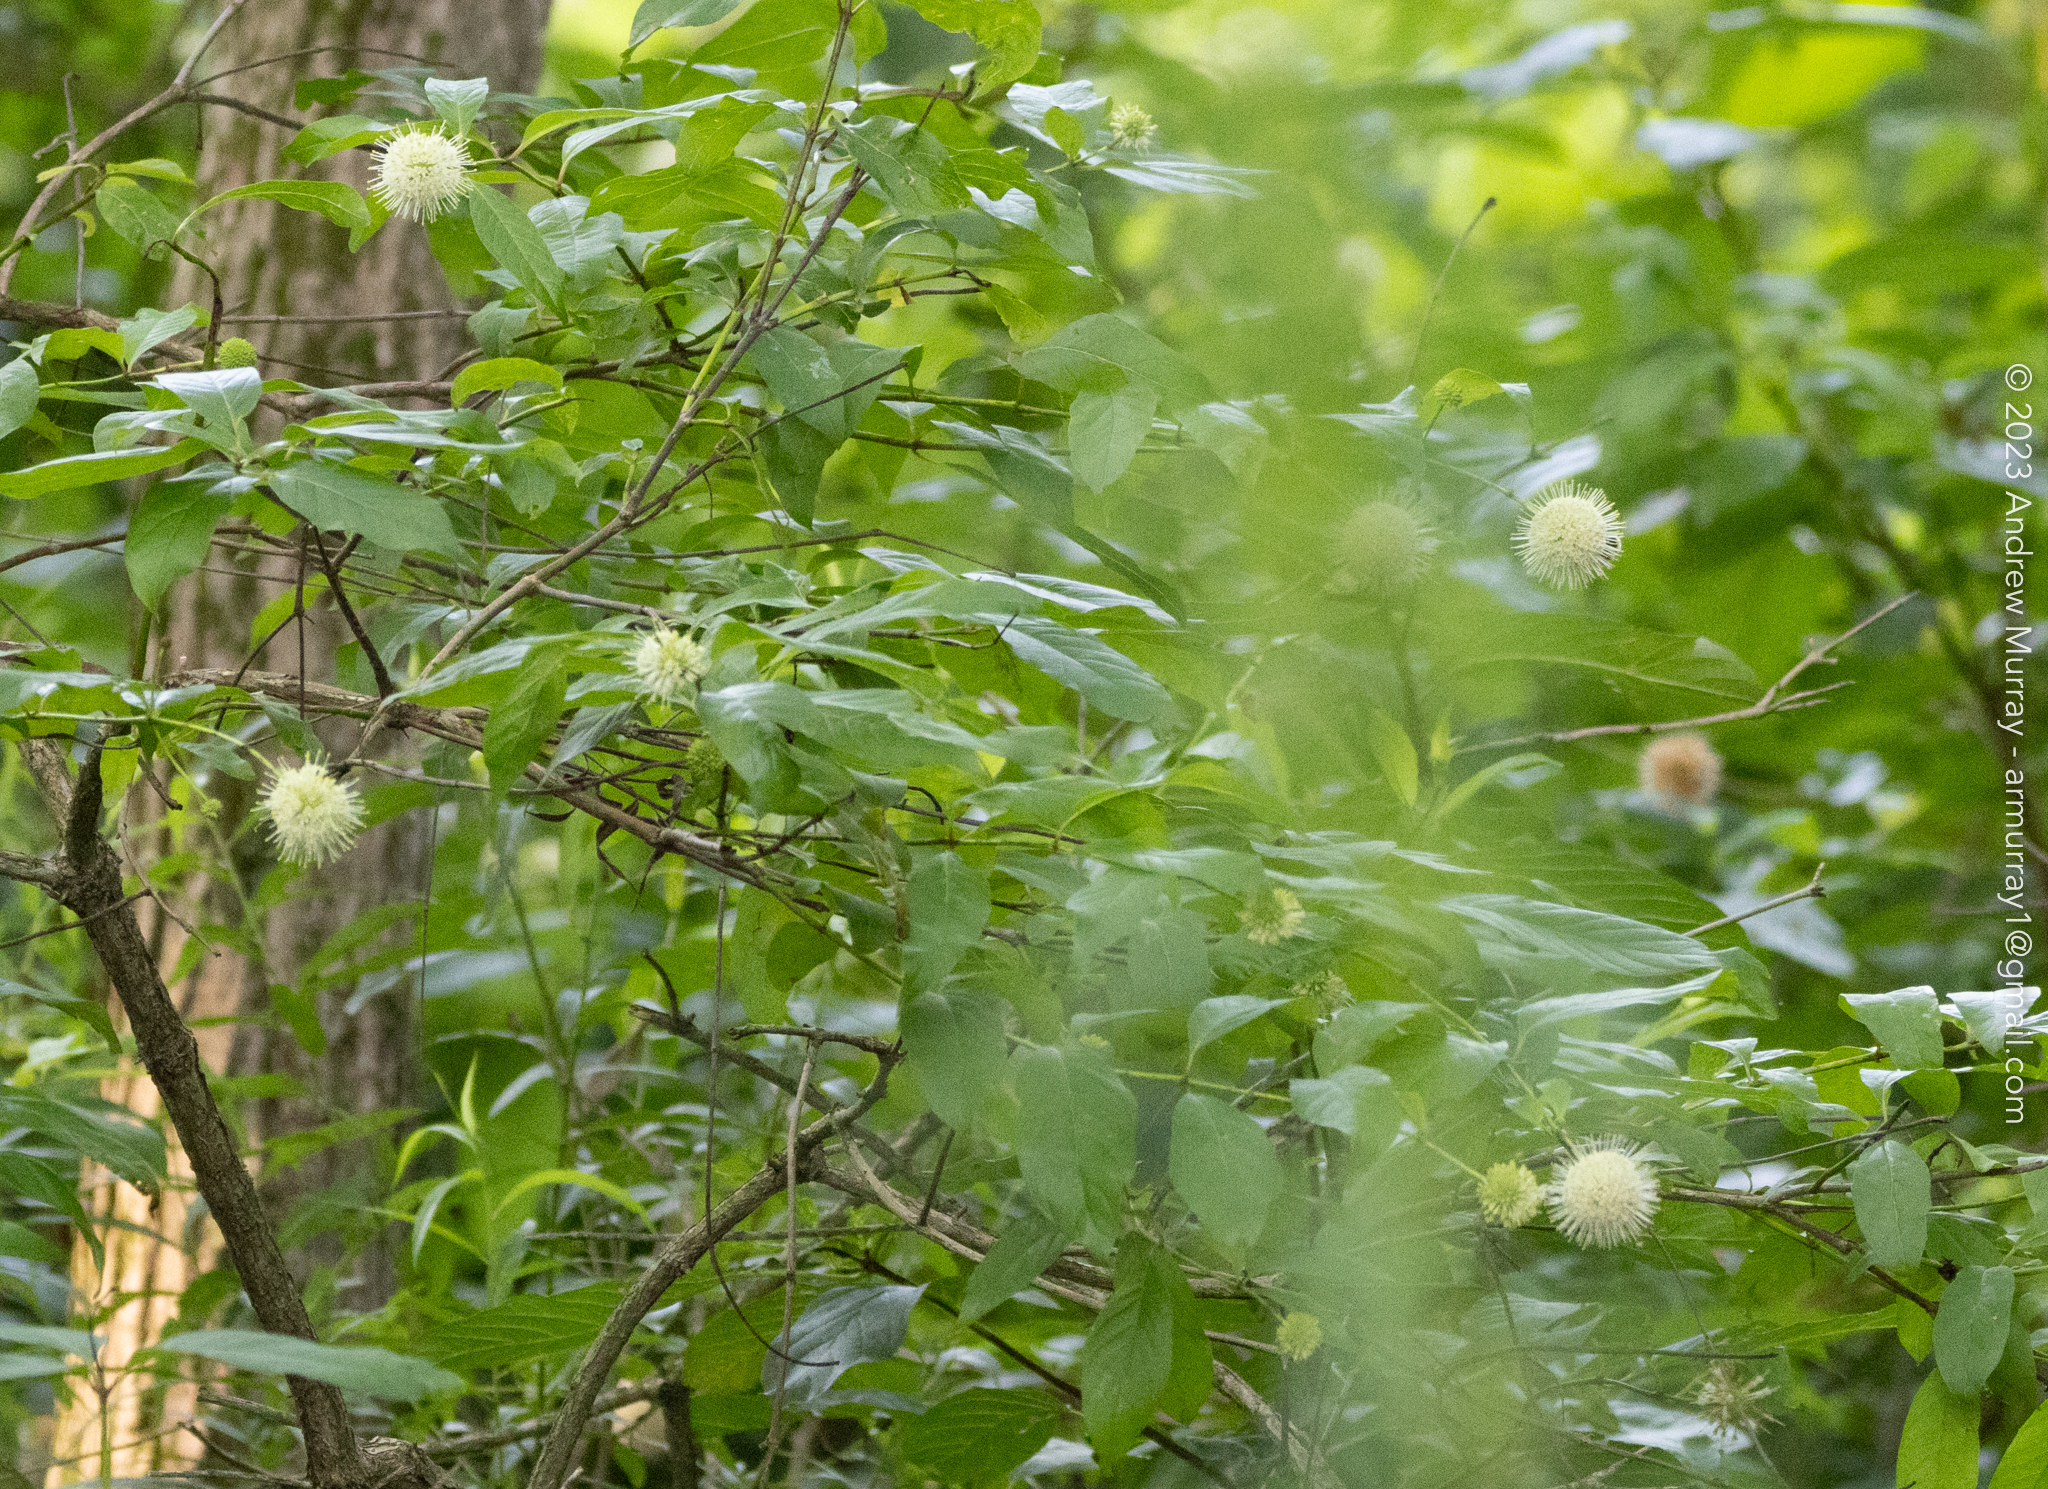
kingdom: Plantae
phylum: Tracheophyta
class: Magnoliopsida
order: Gentianales
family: Rubiaceae
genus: Cephalanthus
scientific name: Cephalanthus occidentalis
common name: Button-willow
